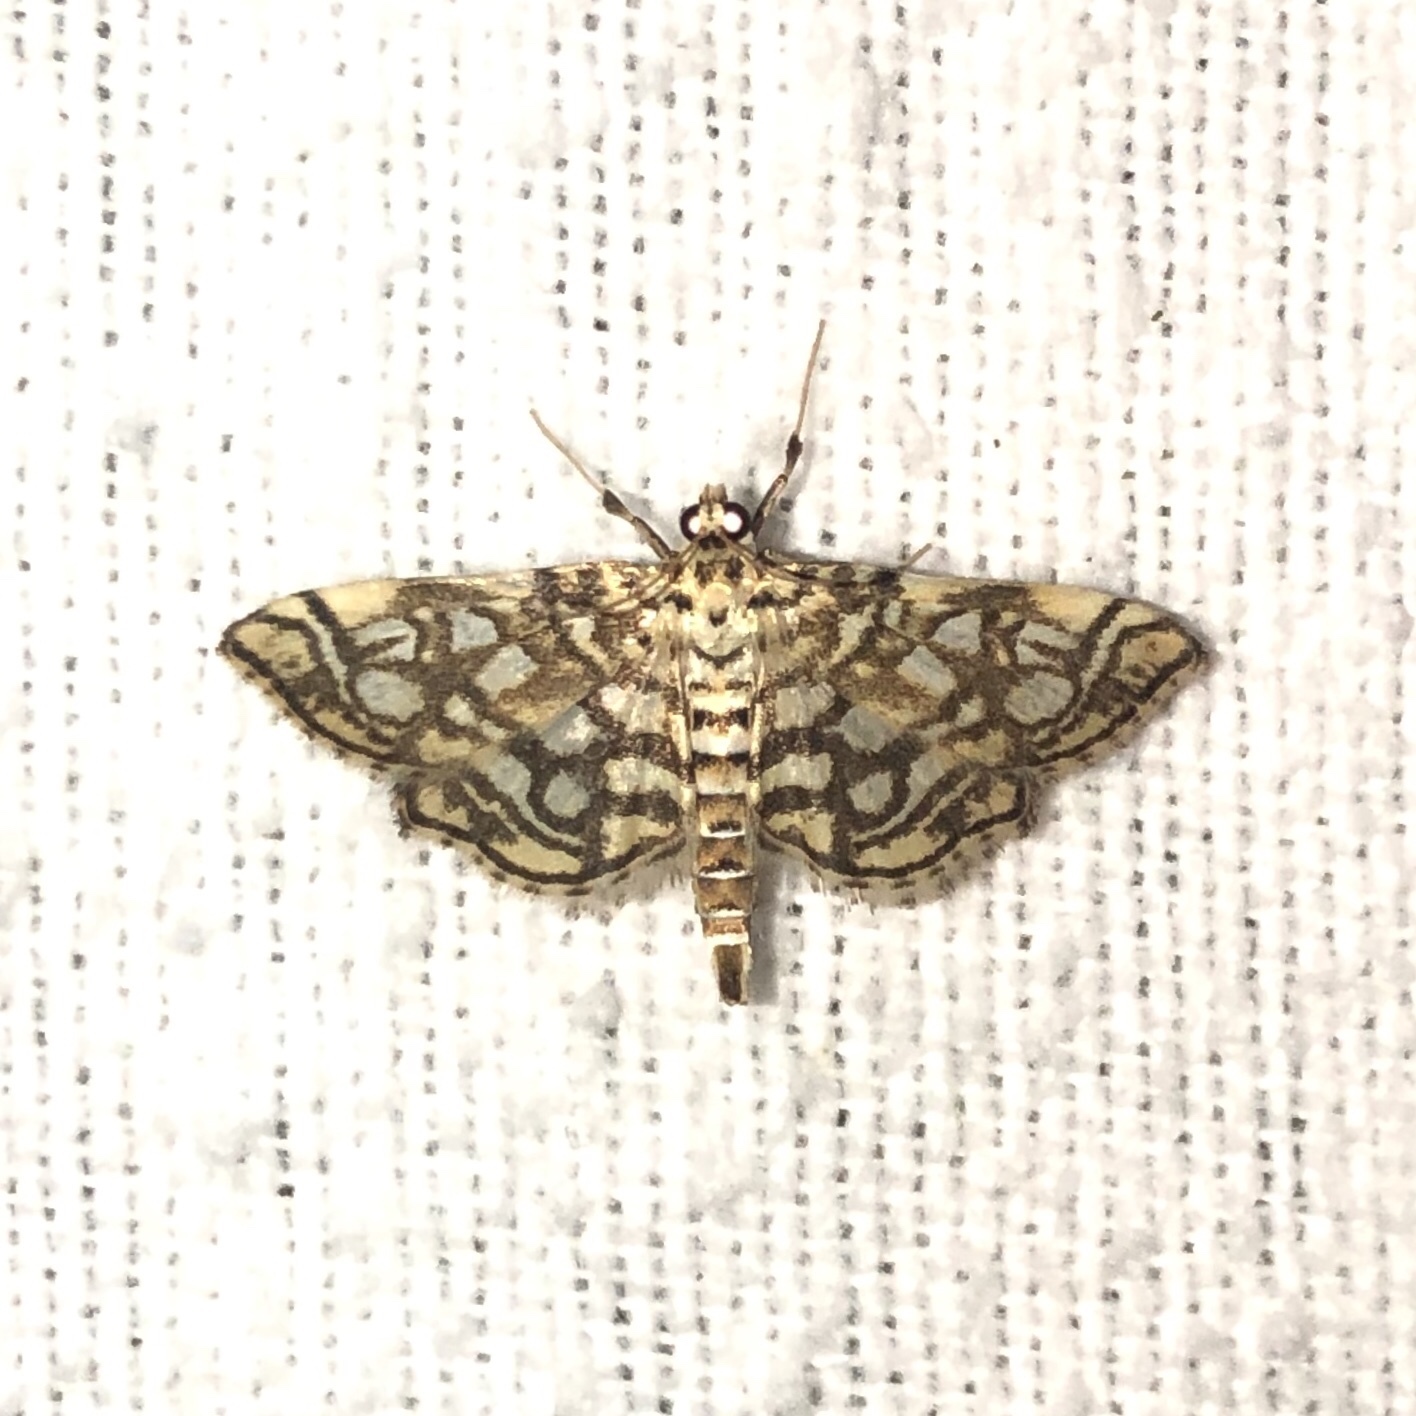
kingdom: Animalia
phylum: Arthropoda
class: Insecta
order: Lepidoptera
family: Crambidae
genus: Lygropia
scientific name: Lygropia rivulalis
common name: Bog lygropia moth
